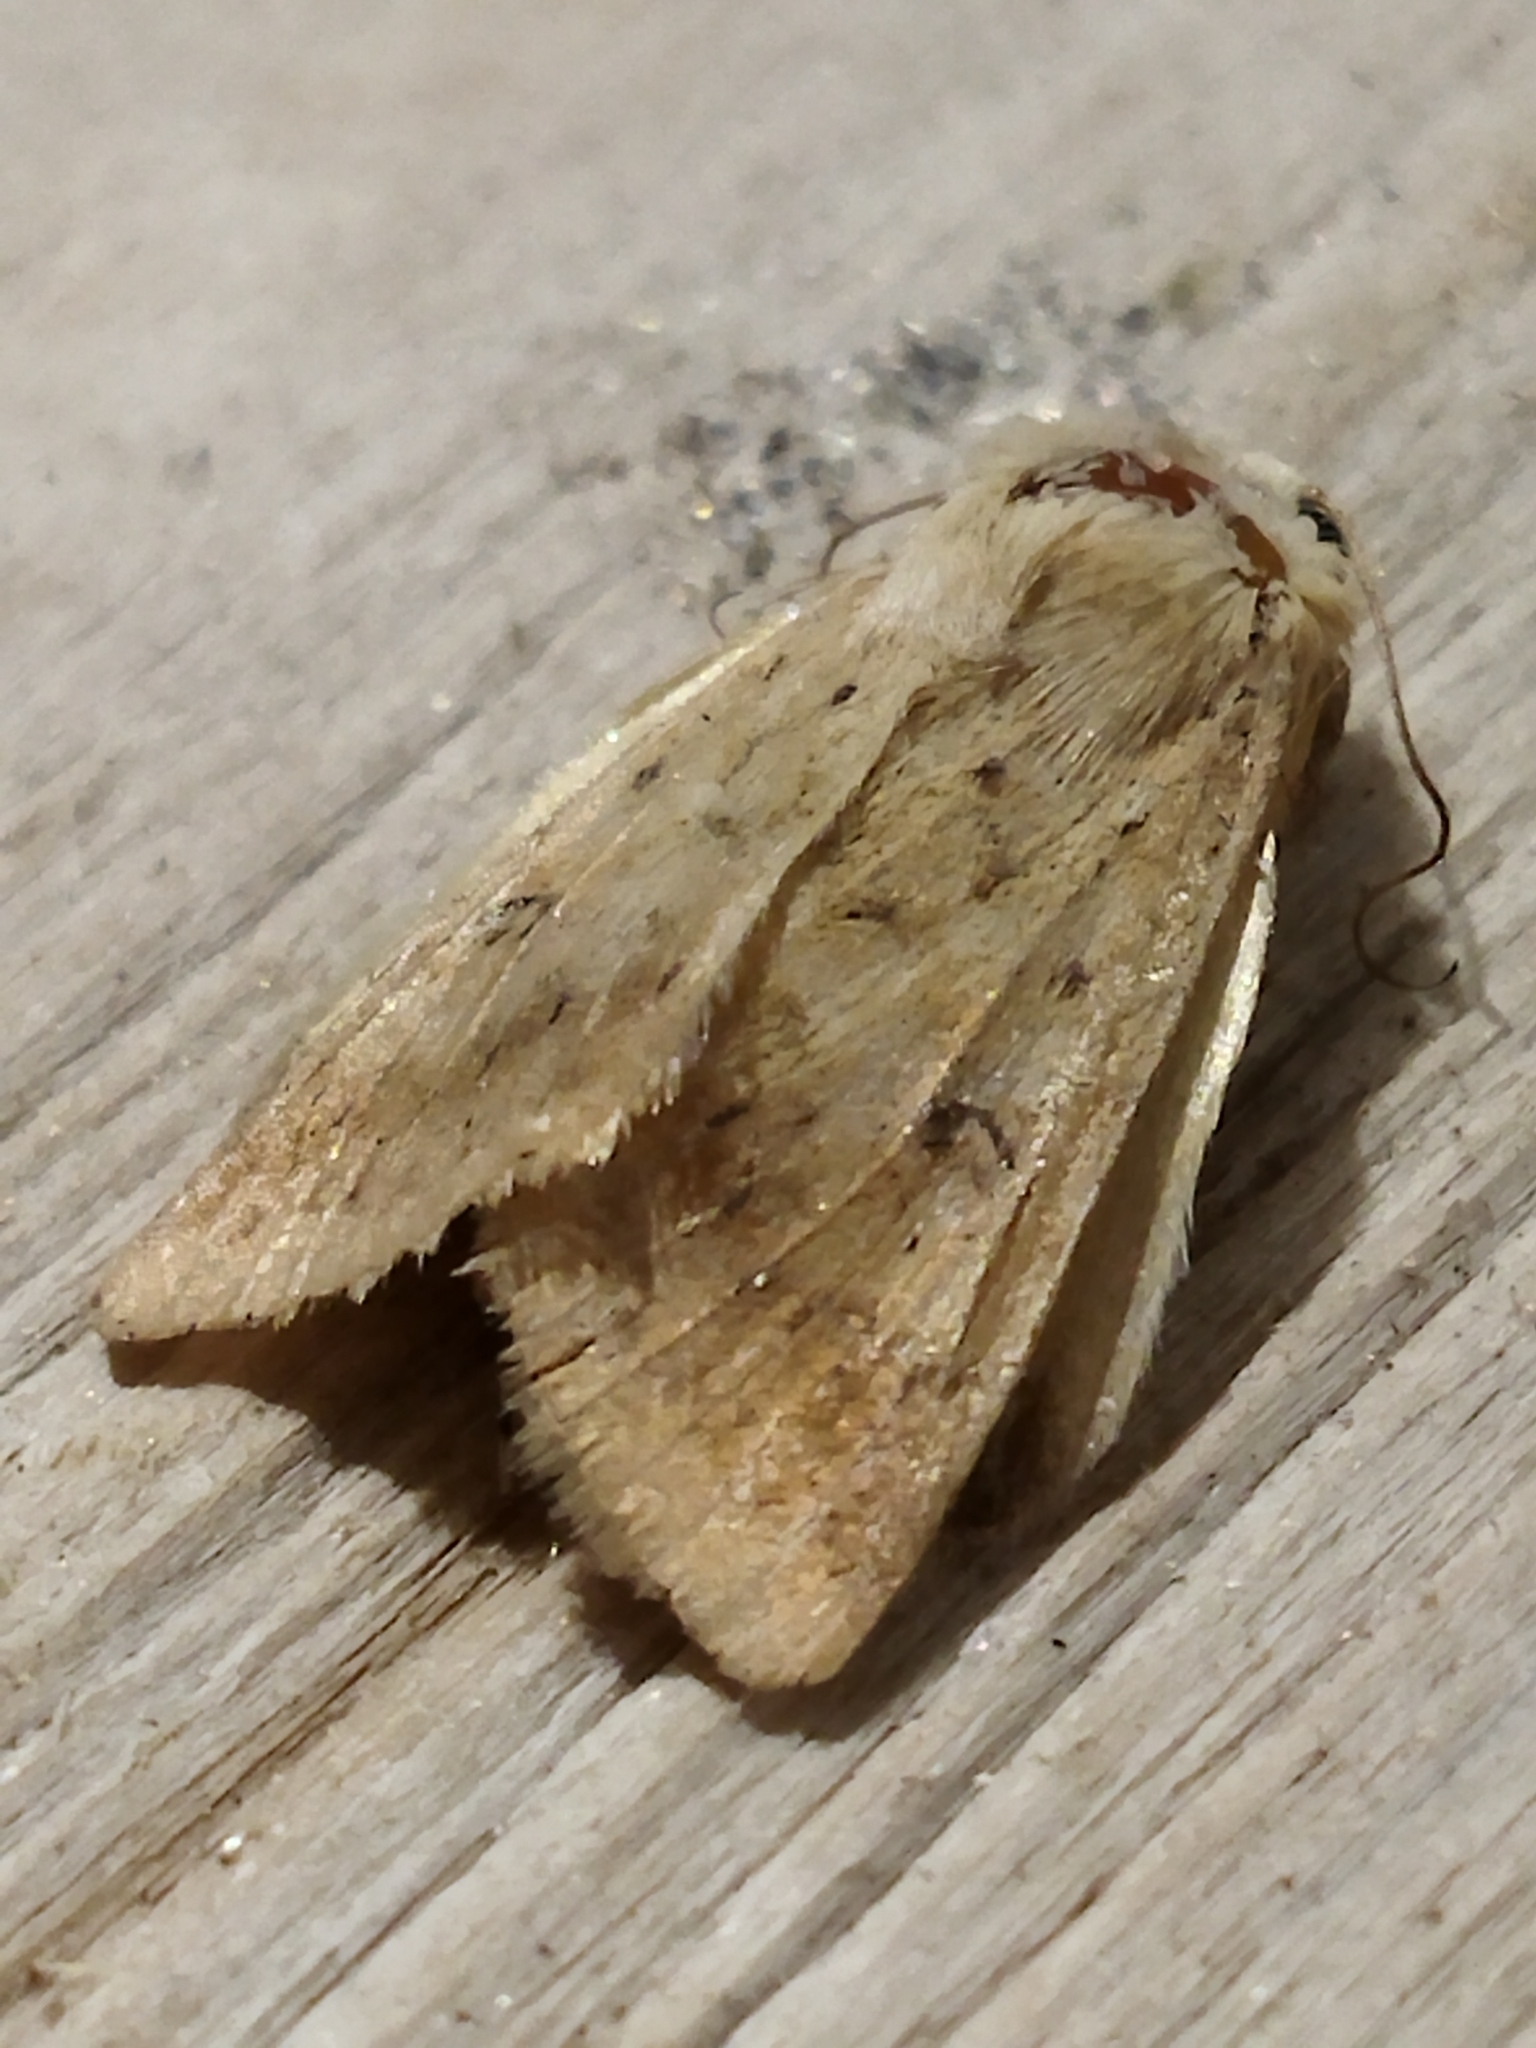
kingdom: Animalia
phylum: Arthropoda
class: Insecta
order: Lepidoptera
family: Noctuidae
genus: Helicoverpa
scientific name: Helicoverpa armigera
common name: Cotton bollworm
